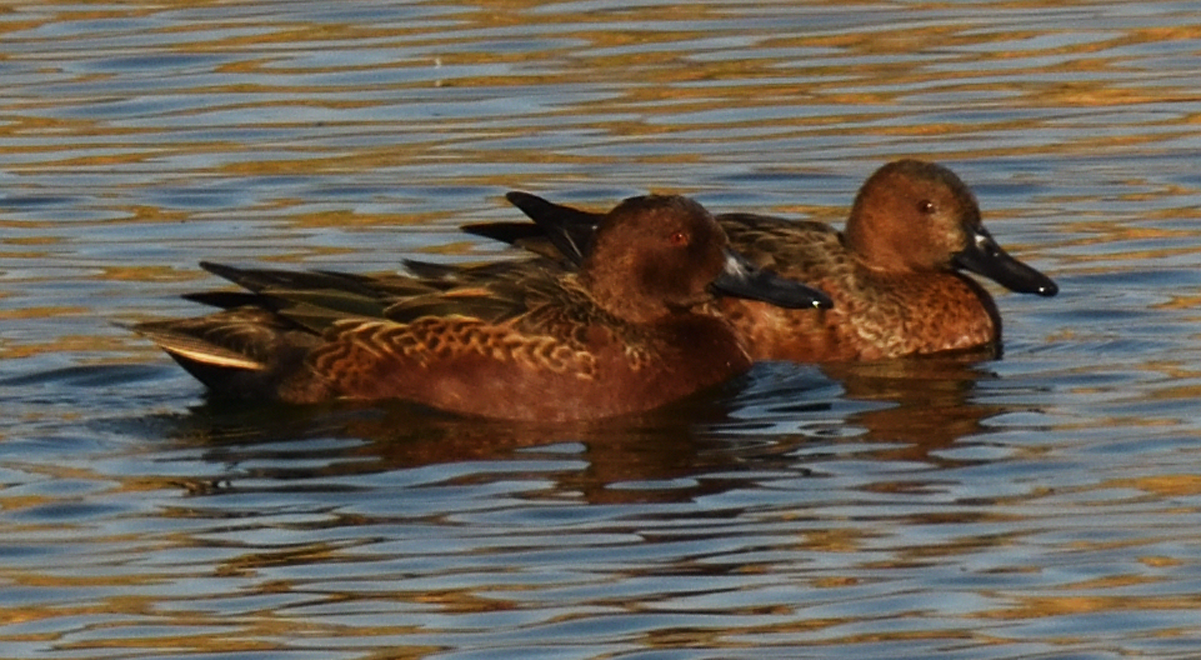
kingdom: Animalia
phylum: Chordata
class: Aves
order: Anseriformes
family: Anatidae
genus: Spatula
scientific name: Spatula cyanoptera
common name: Cinnamon teal
